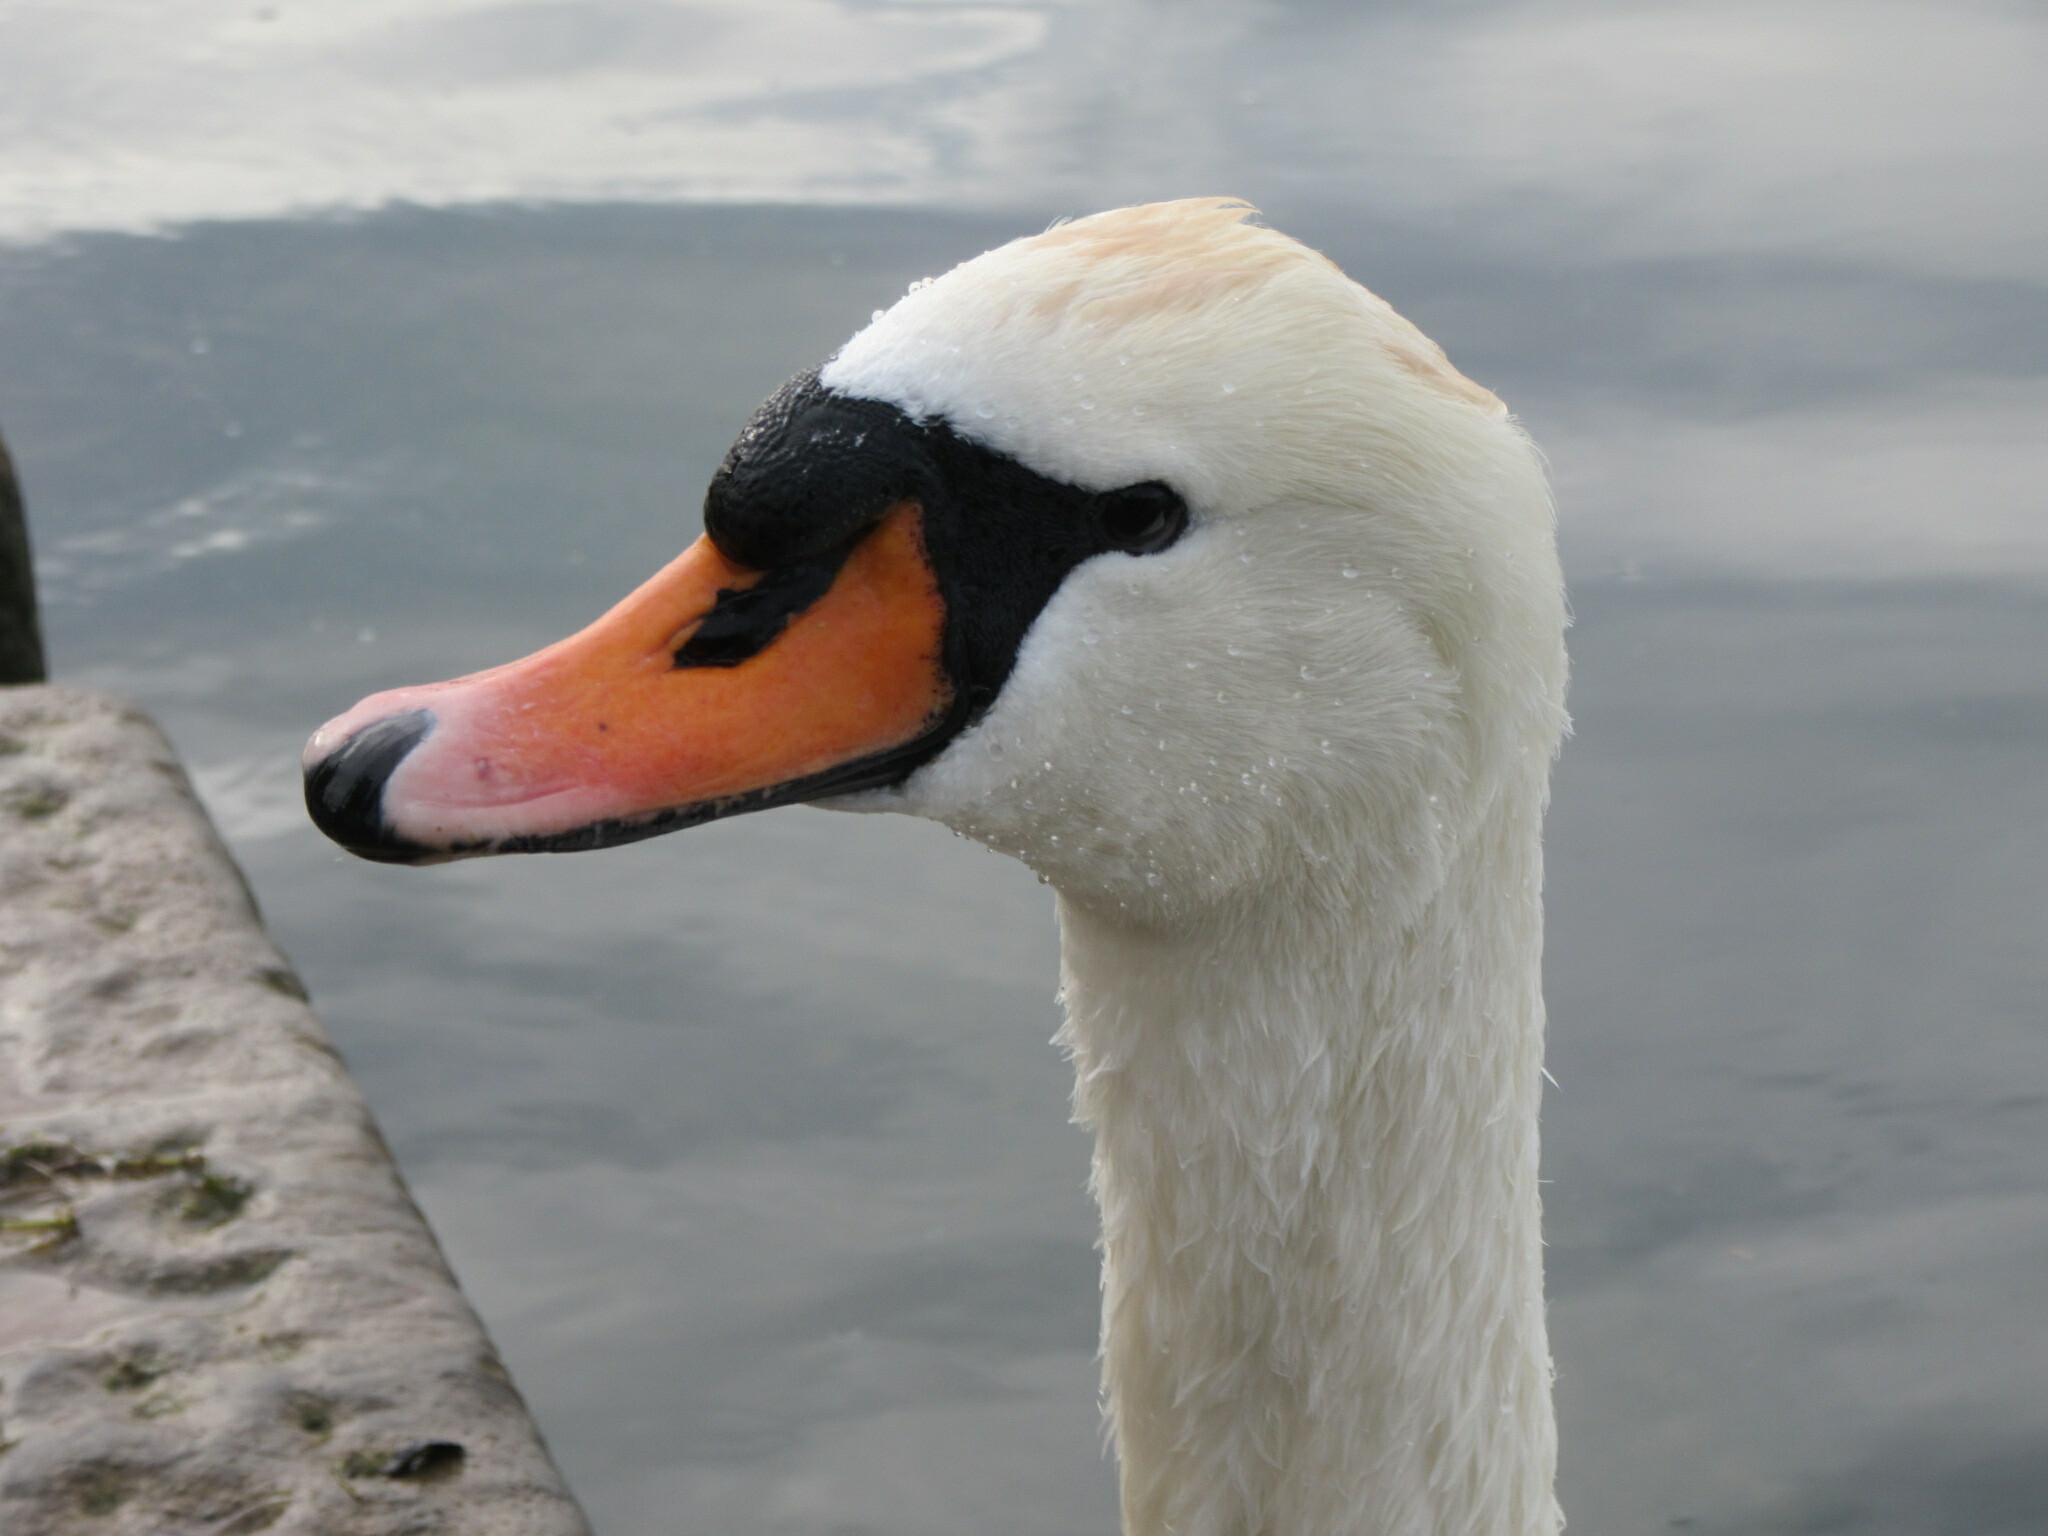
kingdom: Animalia
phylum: Chordata
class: Aves
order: Anseriformes
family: Anatidae
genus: Cygnus
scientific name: Cygnus olor
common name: Mute swan
